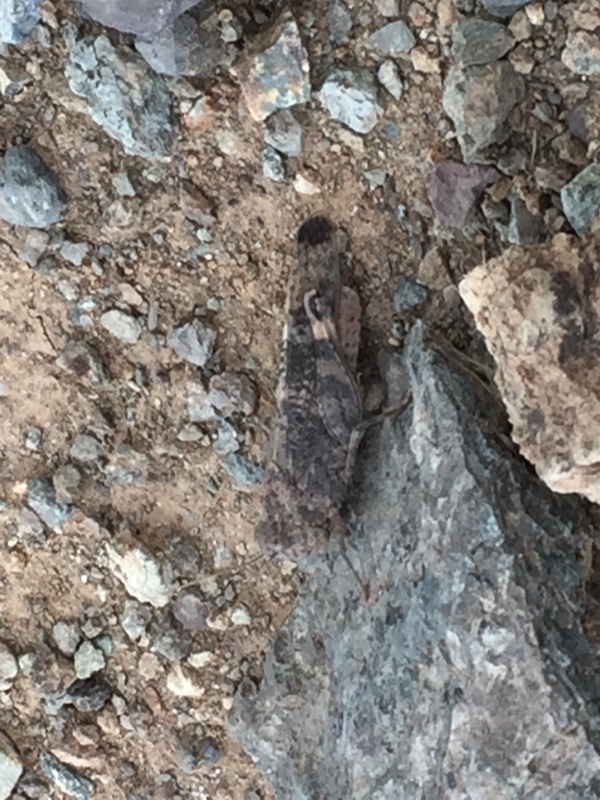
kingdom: Animalia
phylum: Arthropoda
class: Insecta
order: Orthoptera
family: Acrididae
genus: Scintharista
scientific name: Scintharista notabilis
